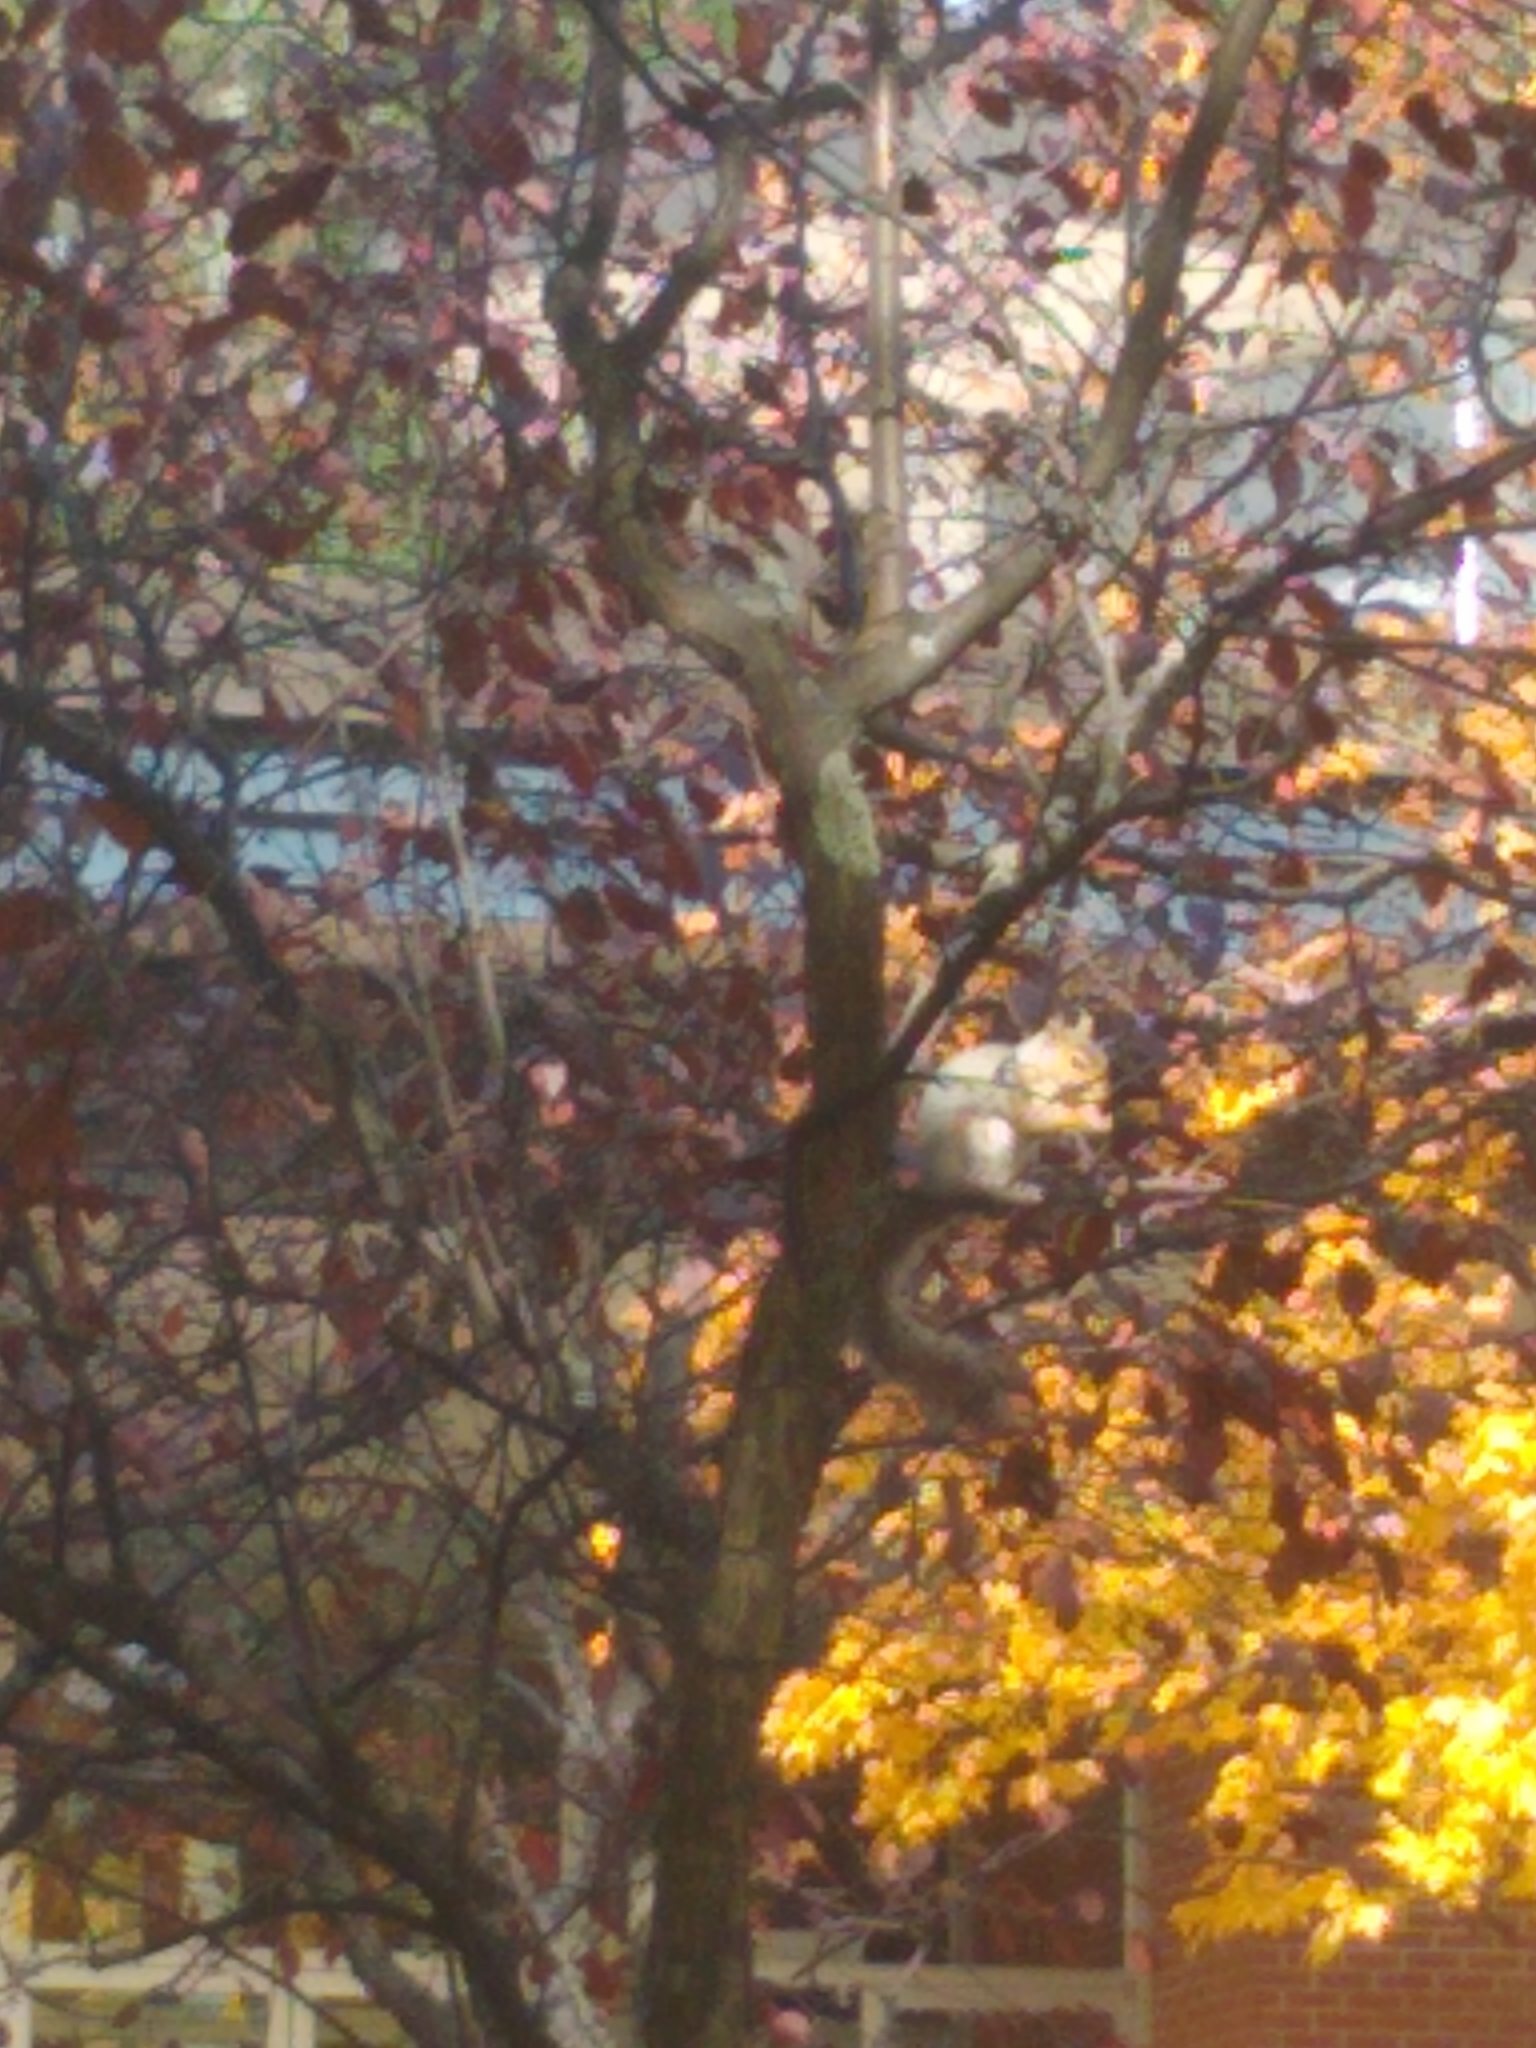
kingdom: Animalia
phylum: Chordata
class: Mammalia
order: Rodentia
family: Sciuridae
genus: Sciurus
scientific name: Sciurus carolinensis
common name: Eastern gray squirrel
